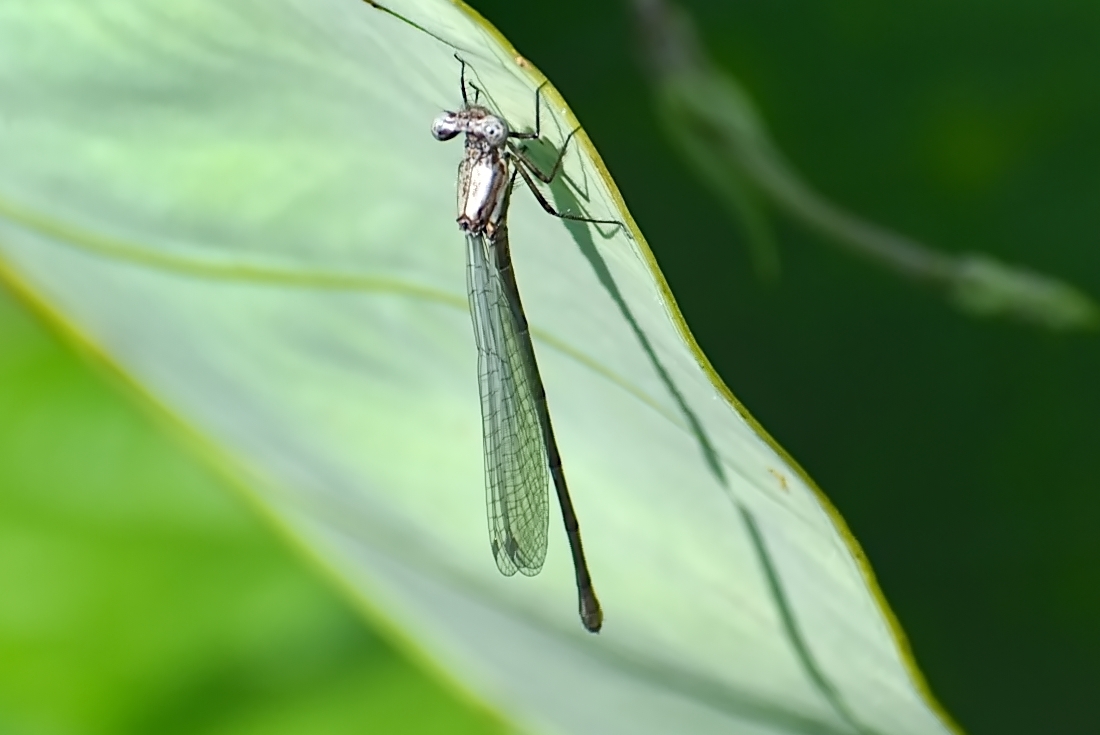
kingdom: Animalia
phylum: Arthropoda
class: Insecta
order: Odonata
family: Platycnemididae
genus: Onychargia
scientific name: Onychargia atrocyana
